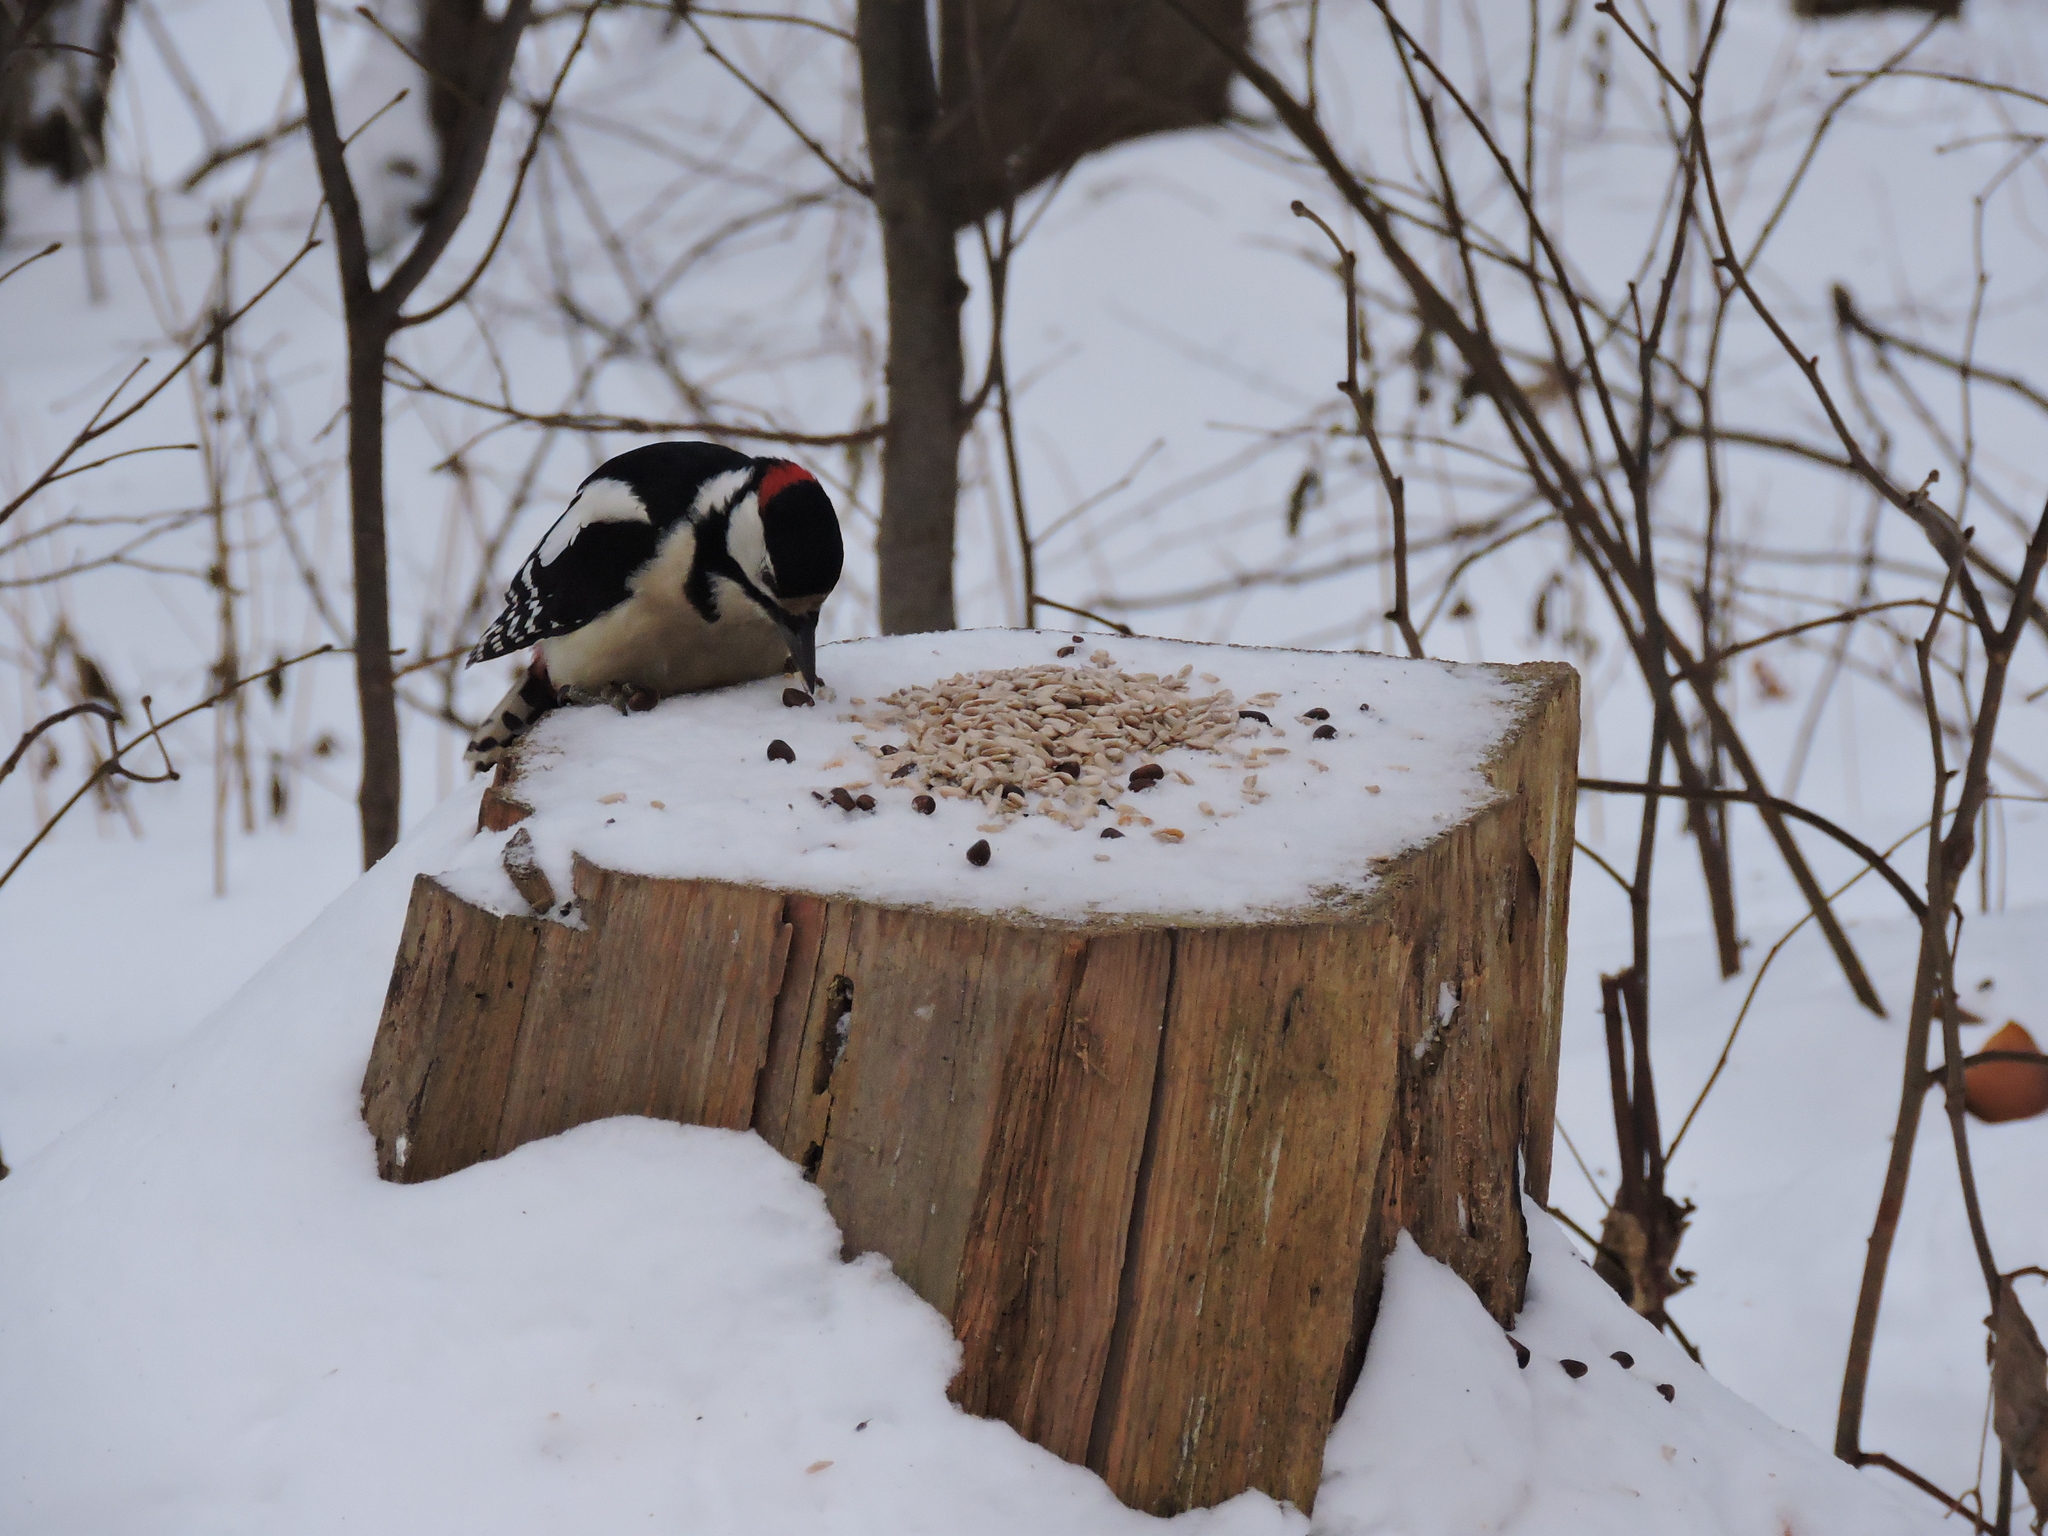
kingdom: Animalia
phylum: Chordata
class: Aves
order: Piciformes
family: Picidae
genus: Dendrocopos
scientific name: Dendrocopos major
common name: Great spotted woodpecker
